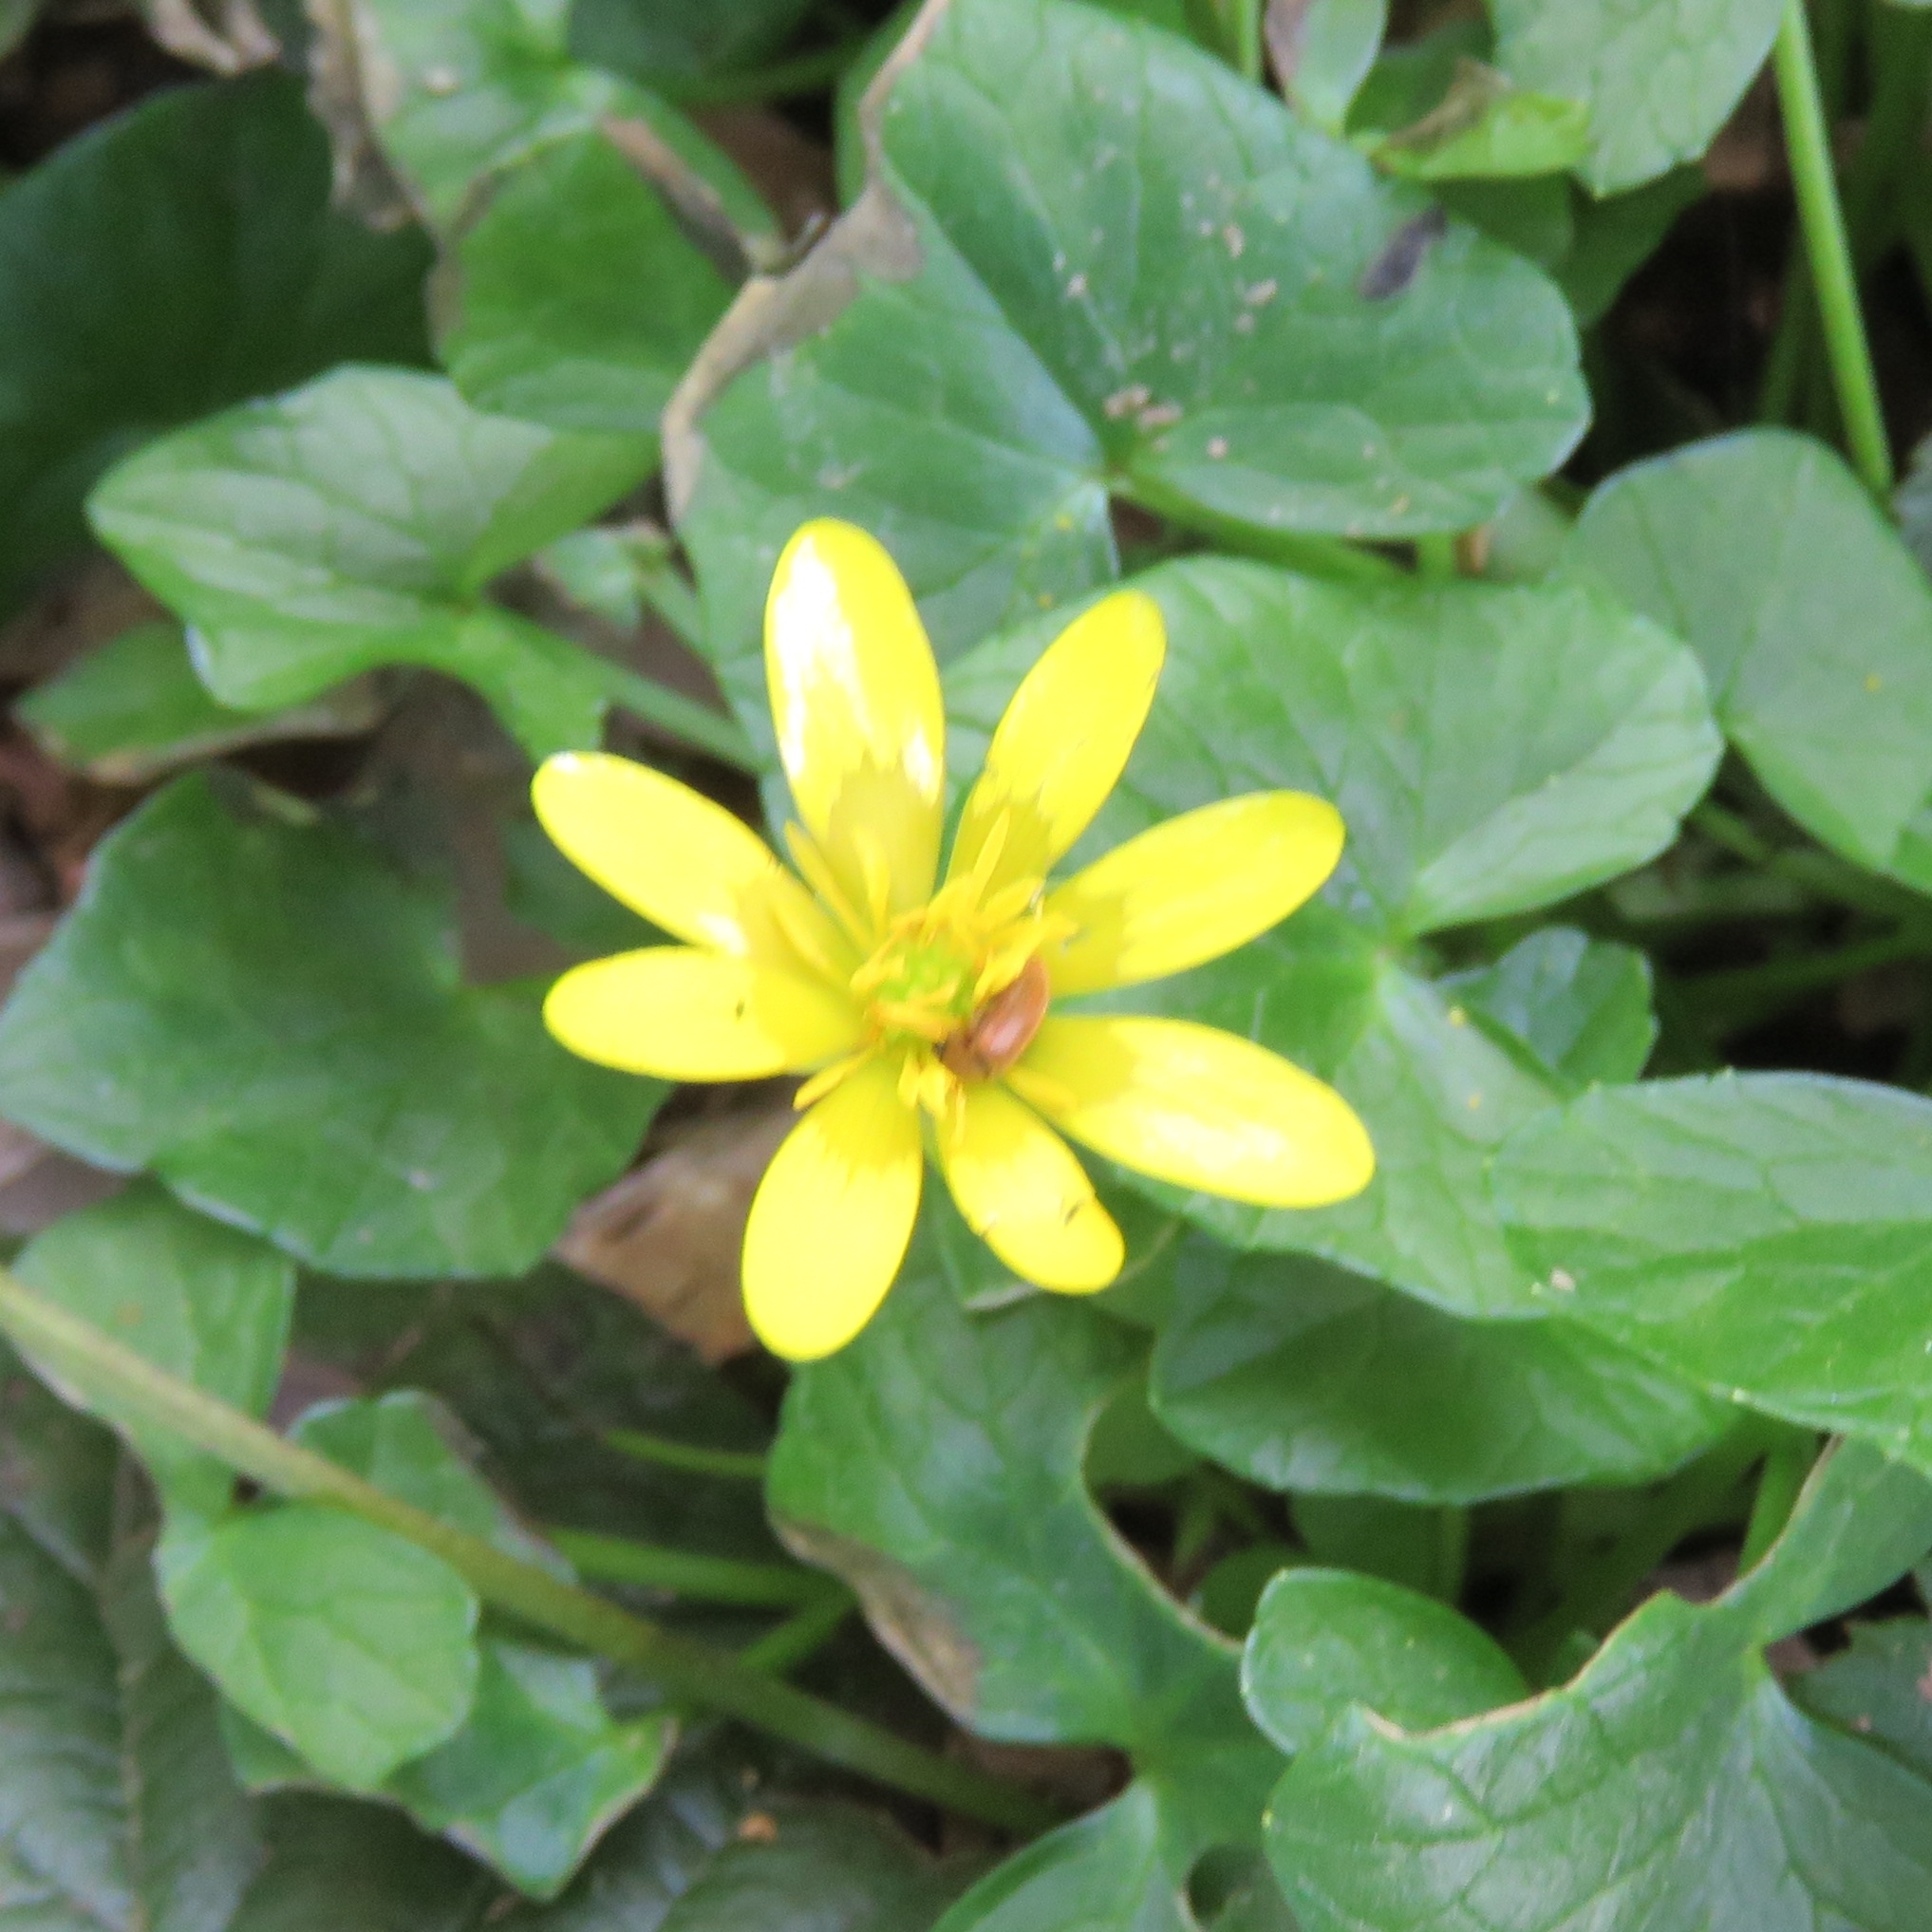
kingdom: Plantae
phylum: Tracheophyta
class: Magnoliopsida
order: Ranunculales
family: Ranunculaceae
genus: Ficaria
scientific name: Ficaria verna
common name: Lesser celandine
